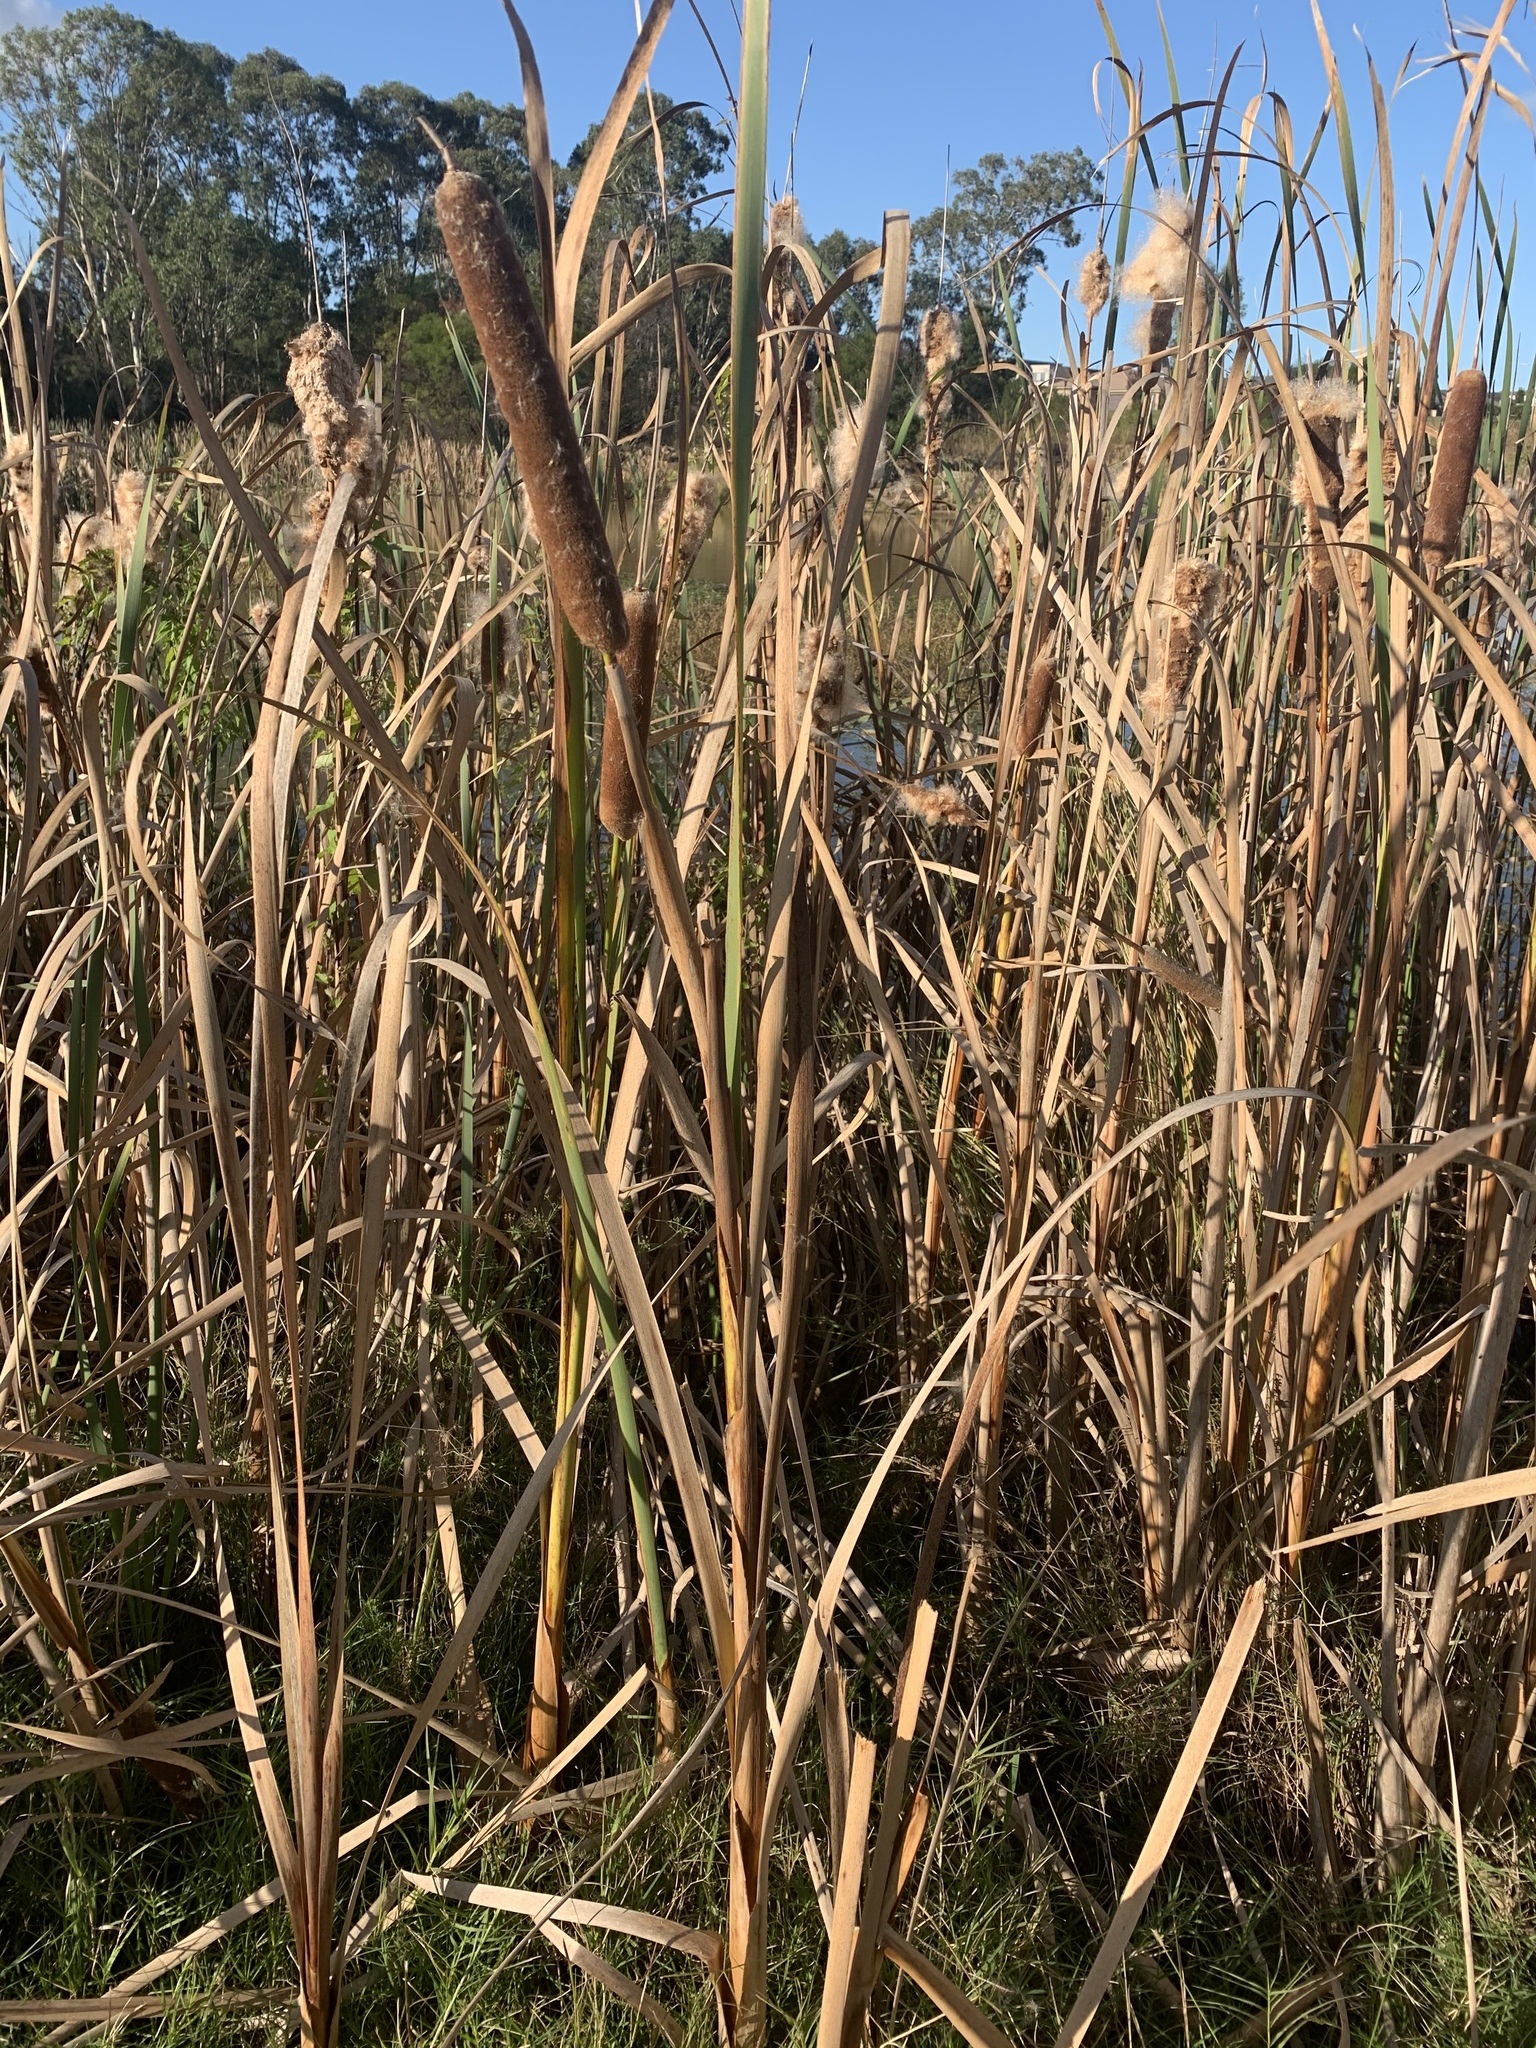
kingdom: Plantae
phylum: Tracheophyta
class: Liliopsida
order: Poales
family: Typhaceae
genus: Typha
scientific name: Typha orientalis
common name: Bullrush
